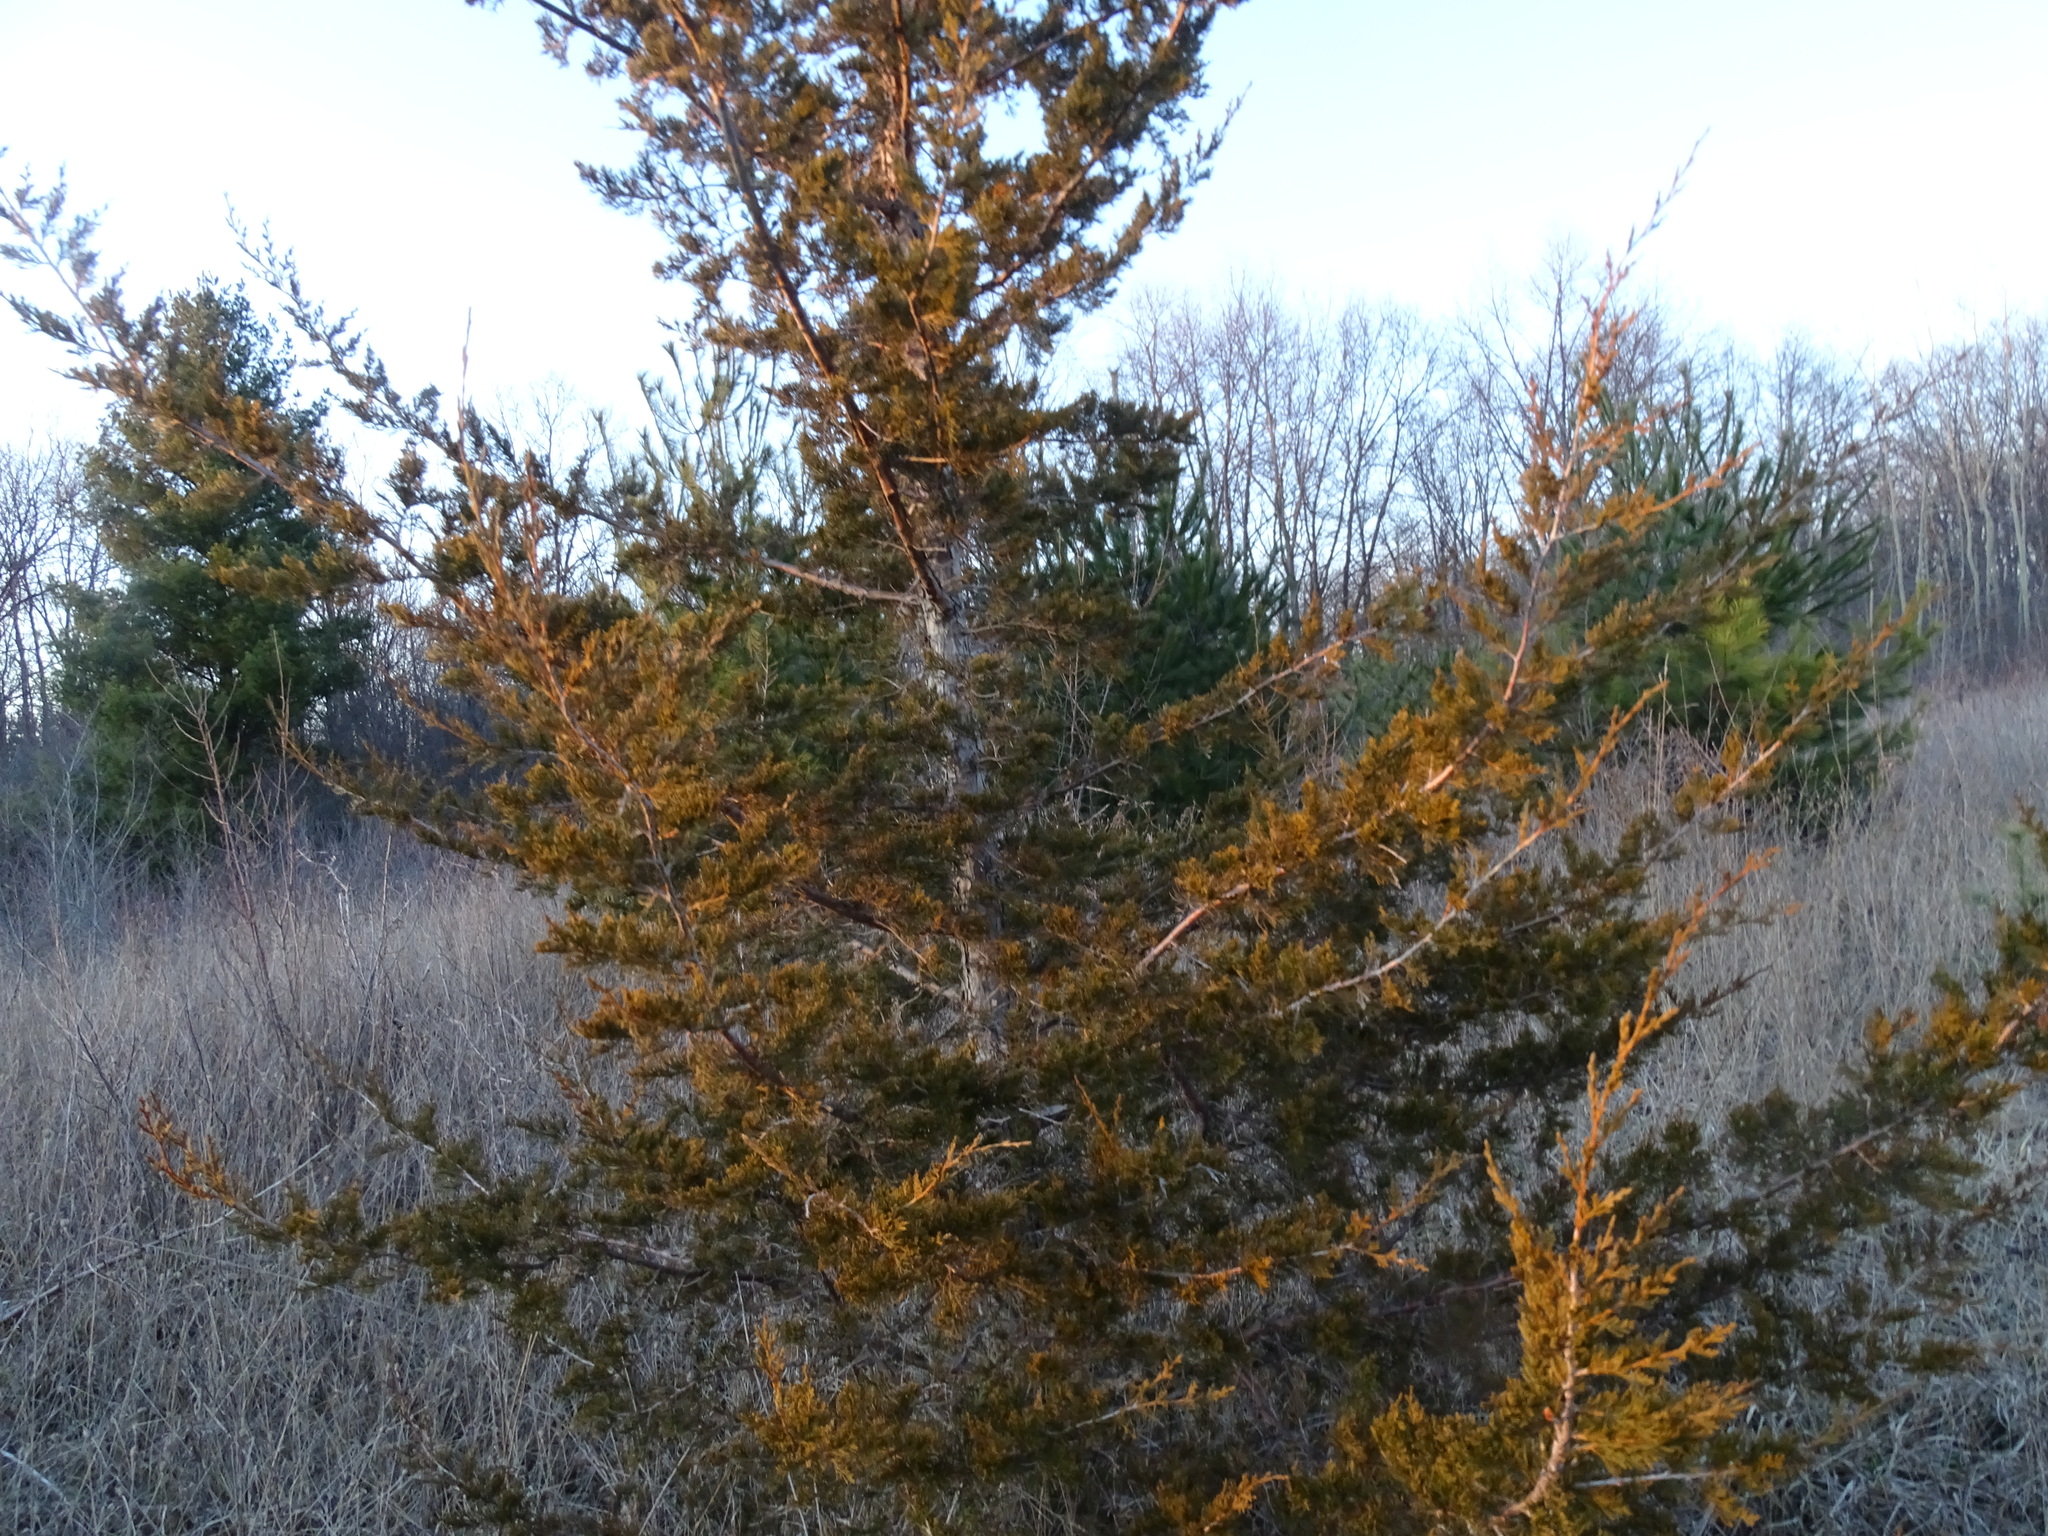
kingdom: Plantae
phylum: Tracheophyta
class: Pinopsida
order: Pinales
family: Cupressaceae
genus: Juniperus
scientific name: Juniperus virginiana
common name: Red juniper
